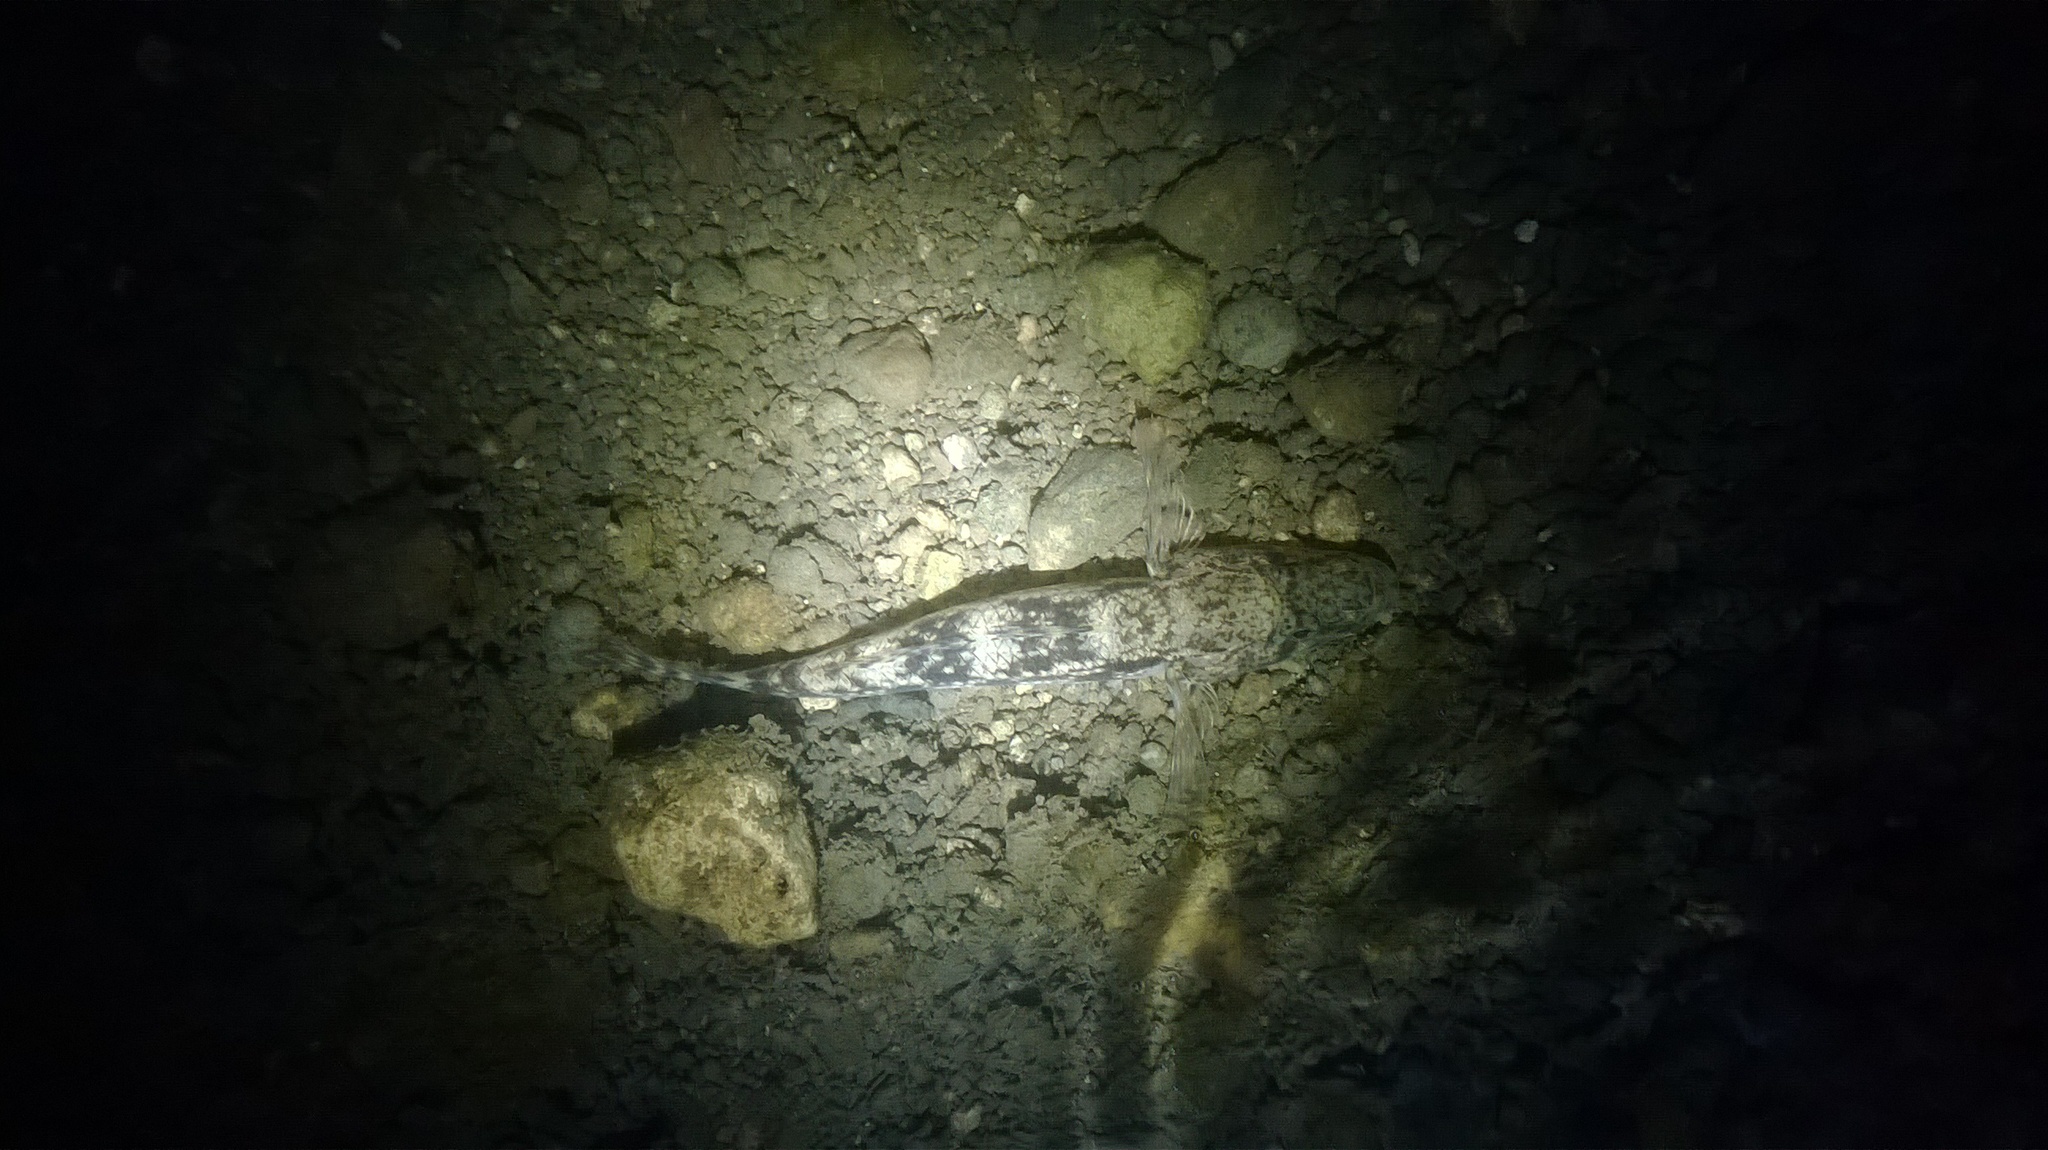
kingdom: Animalia
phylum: Chordata
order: Perciformes
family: Gobiidae
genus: Glossogobius
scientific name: Glossogobius giuris
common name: Tank goby
